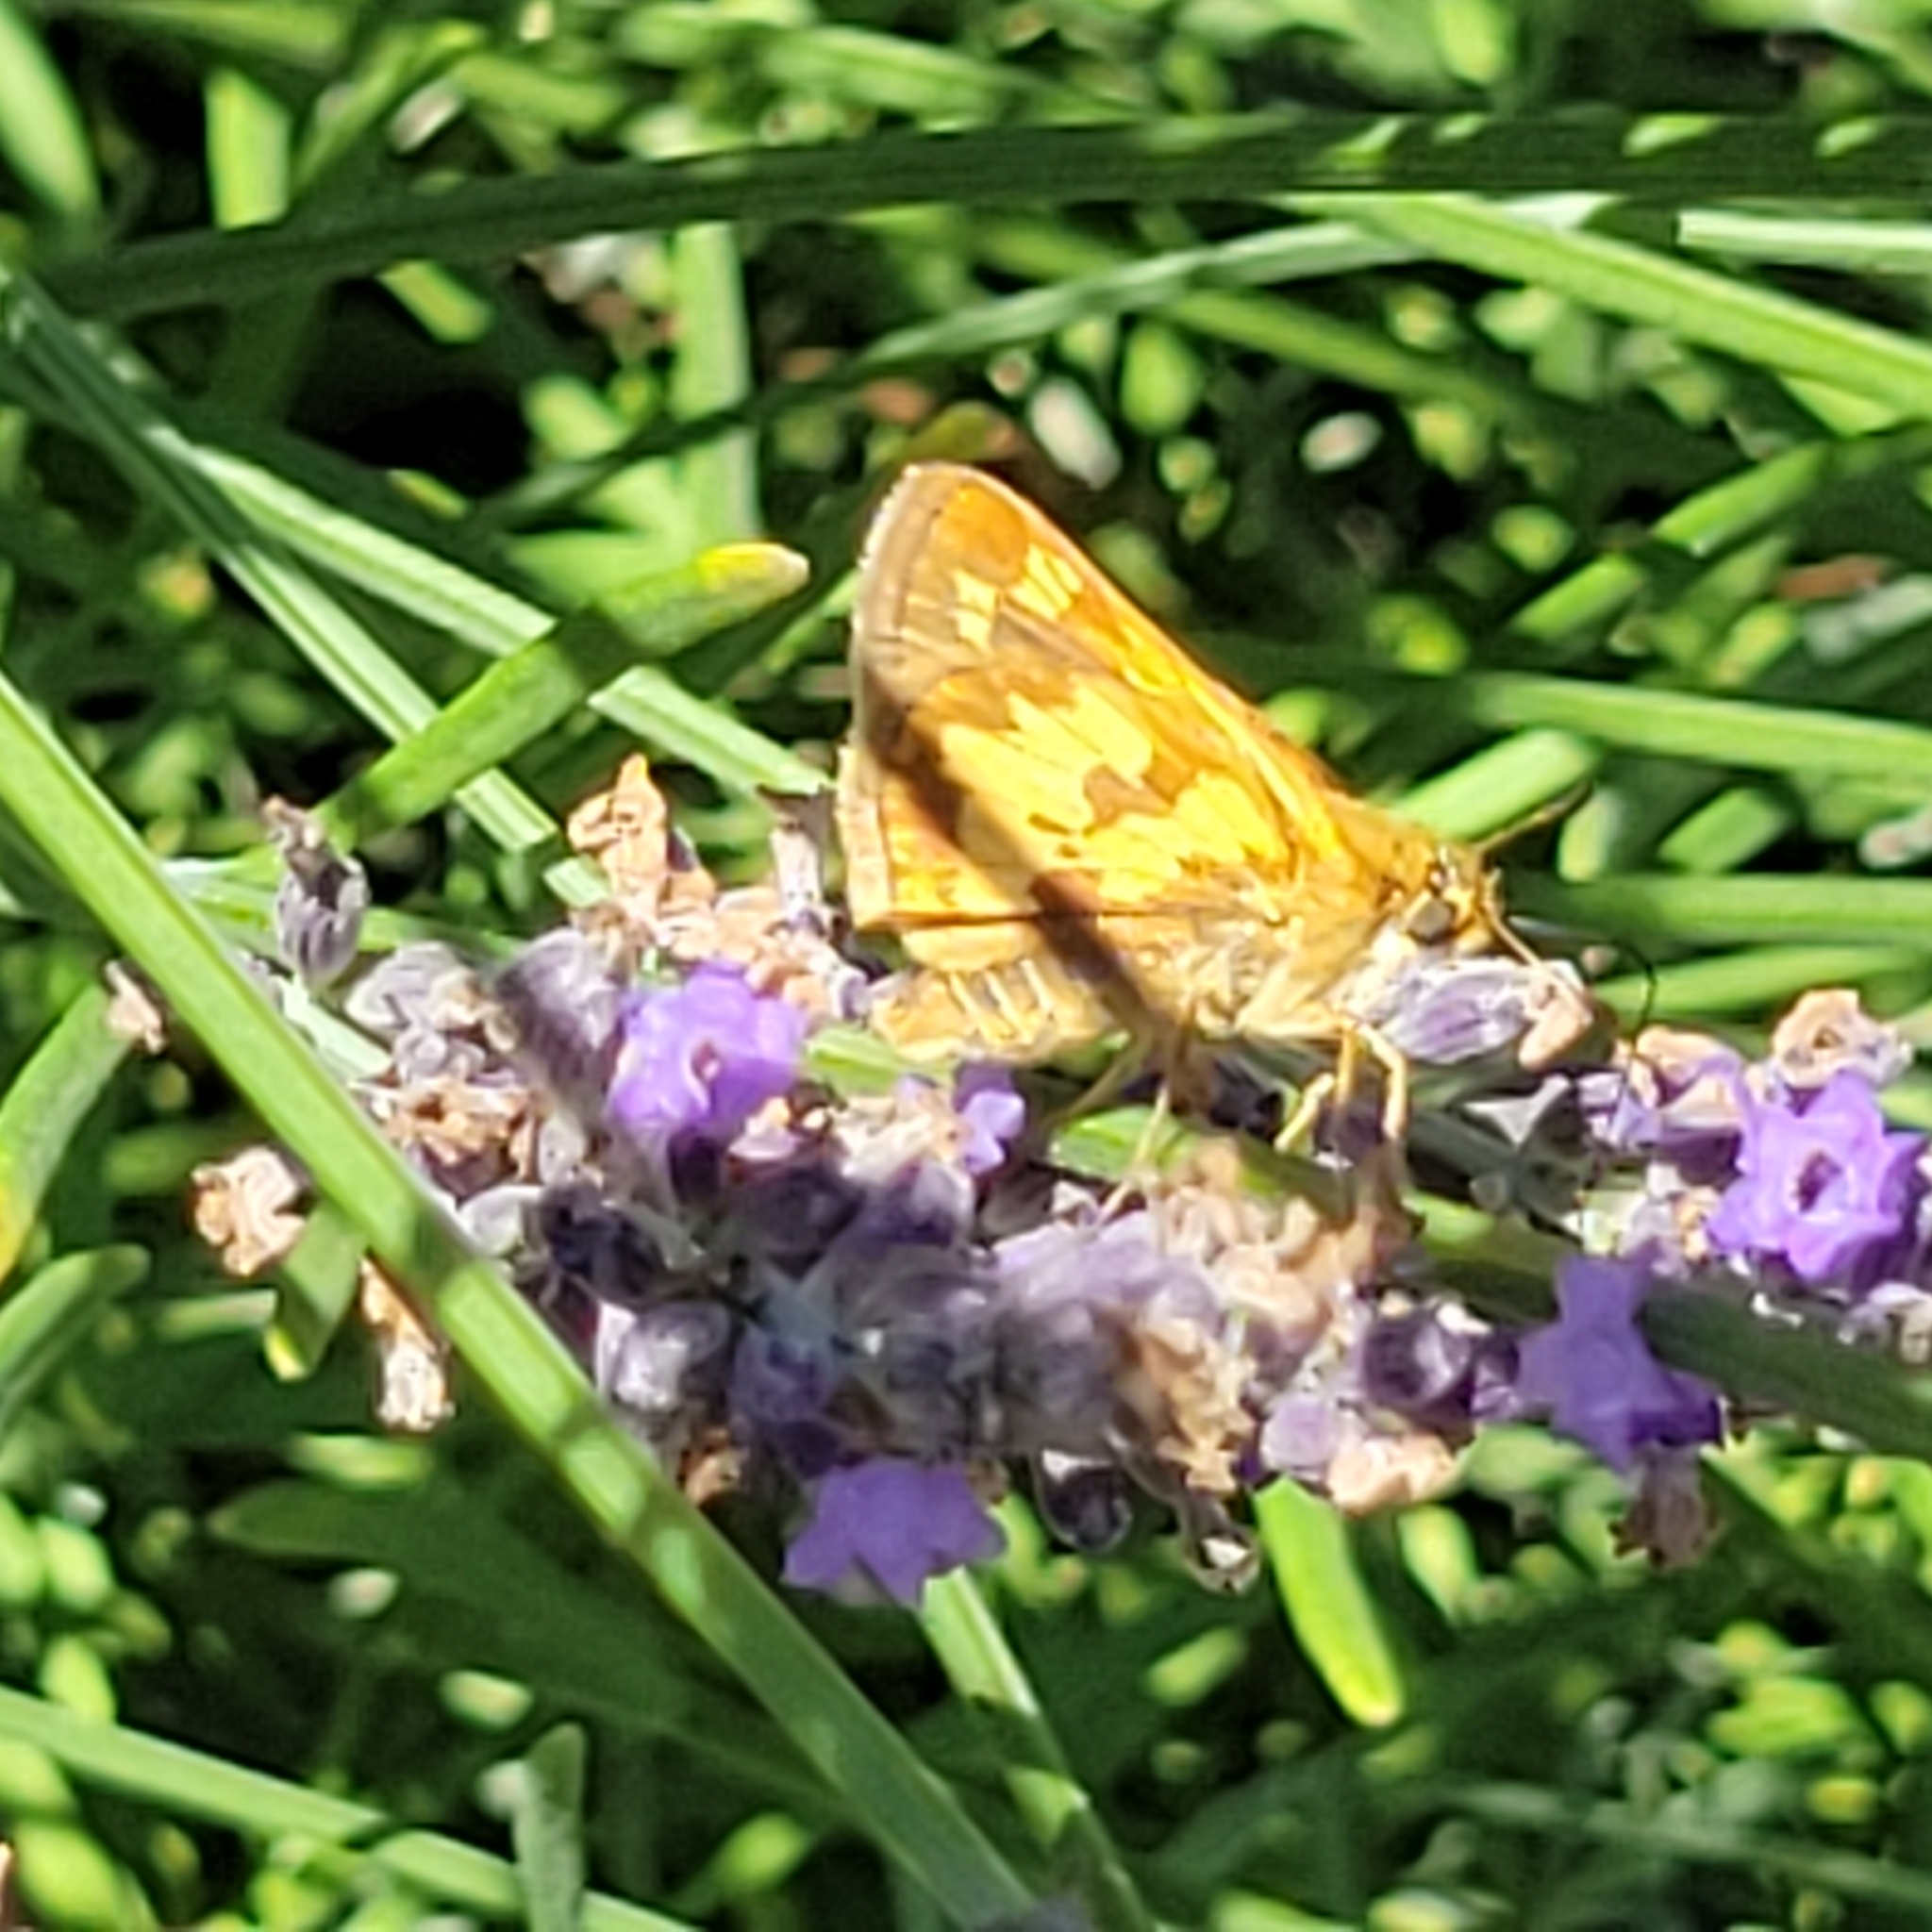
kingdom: Animalia
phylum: Arthropoda
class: Insecta
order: Lepidoptera
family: Hesperiidae
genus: Polites
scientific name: Polites coras
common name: Peck's skipper
